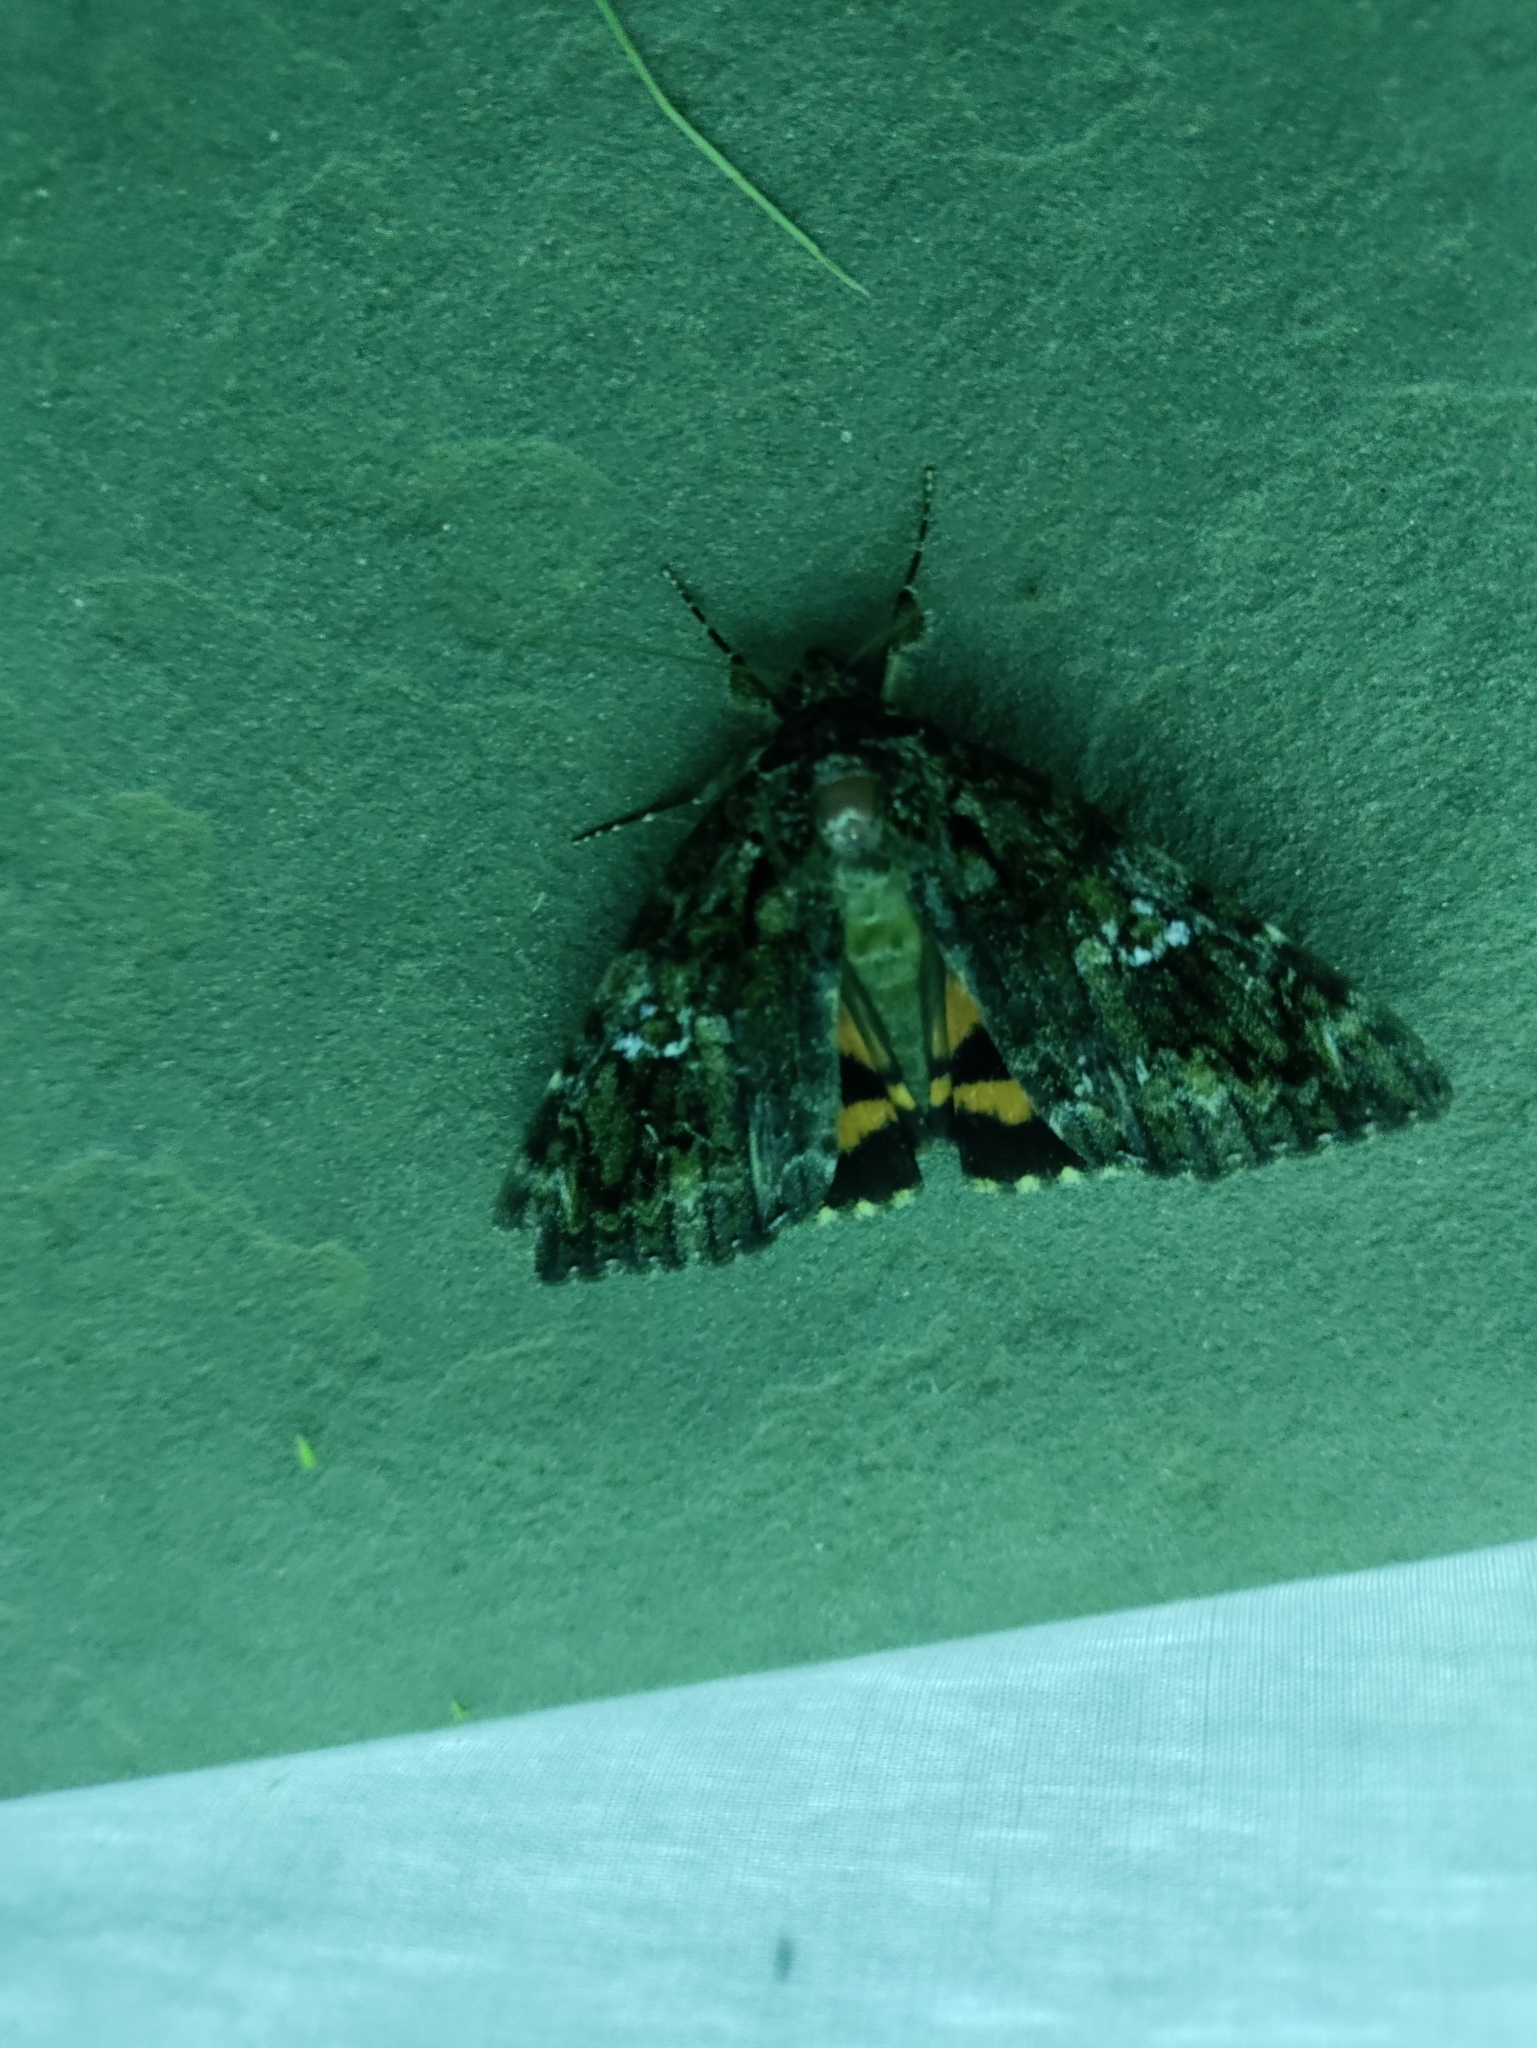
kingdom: Animalia
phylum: Arthropoda
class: Insecta
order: Lepidoptera
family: Erebidae
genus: Catocala
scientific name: Catocala ilia
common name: Ilia underwing
